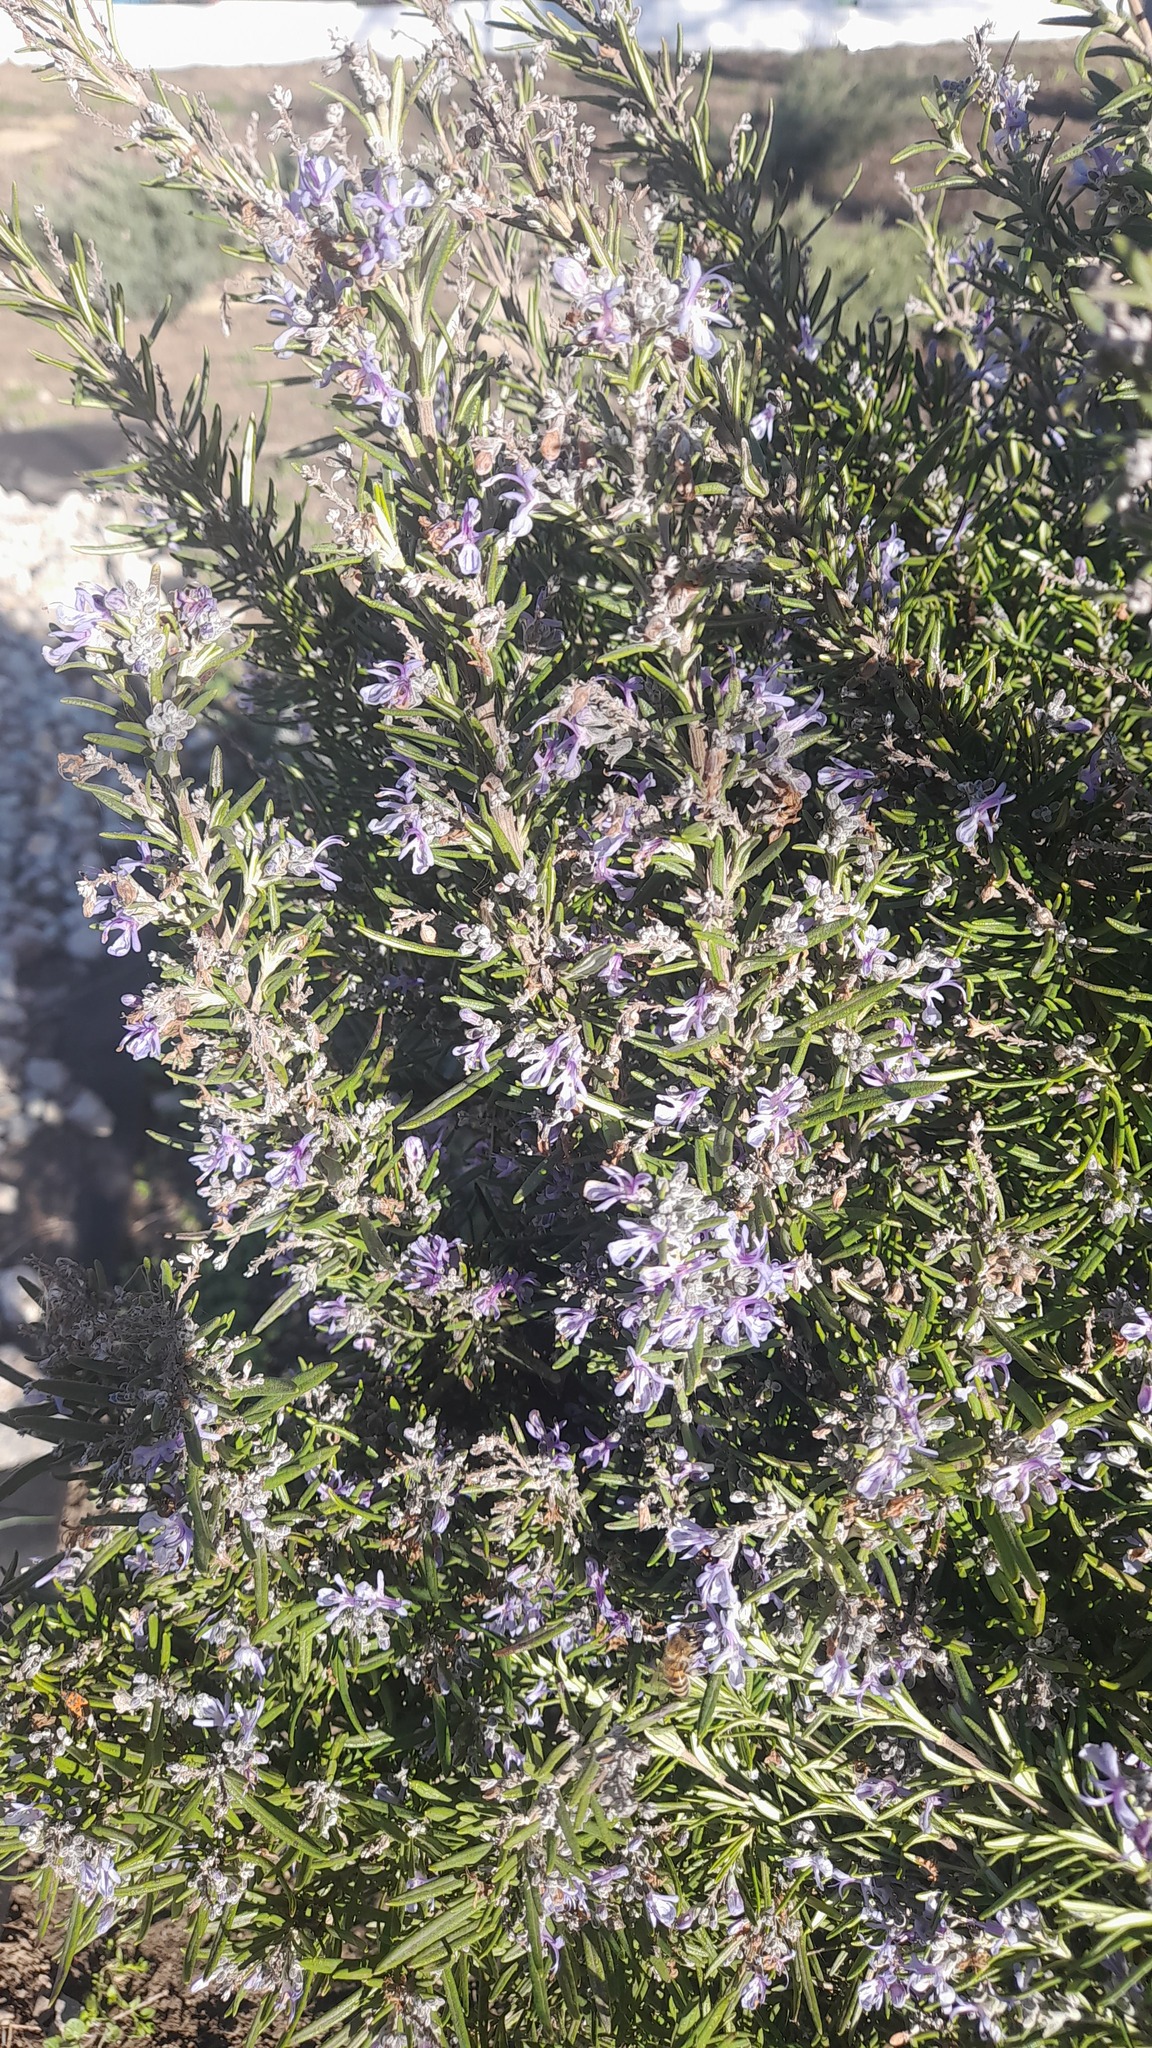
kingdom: Plantae
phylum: Tracheophyta
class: Magnoliopsida
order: Lamiales
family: Lamiaceae
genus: Salvia
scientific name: Salvia rosmarinus
